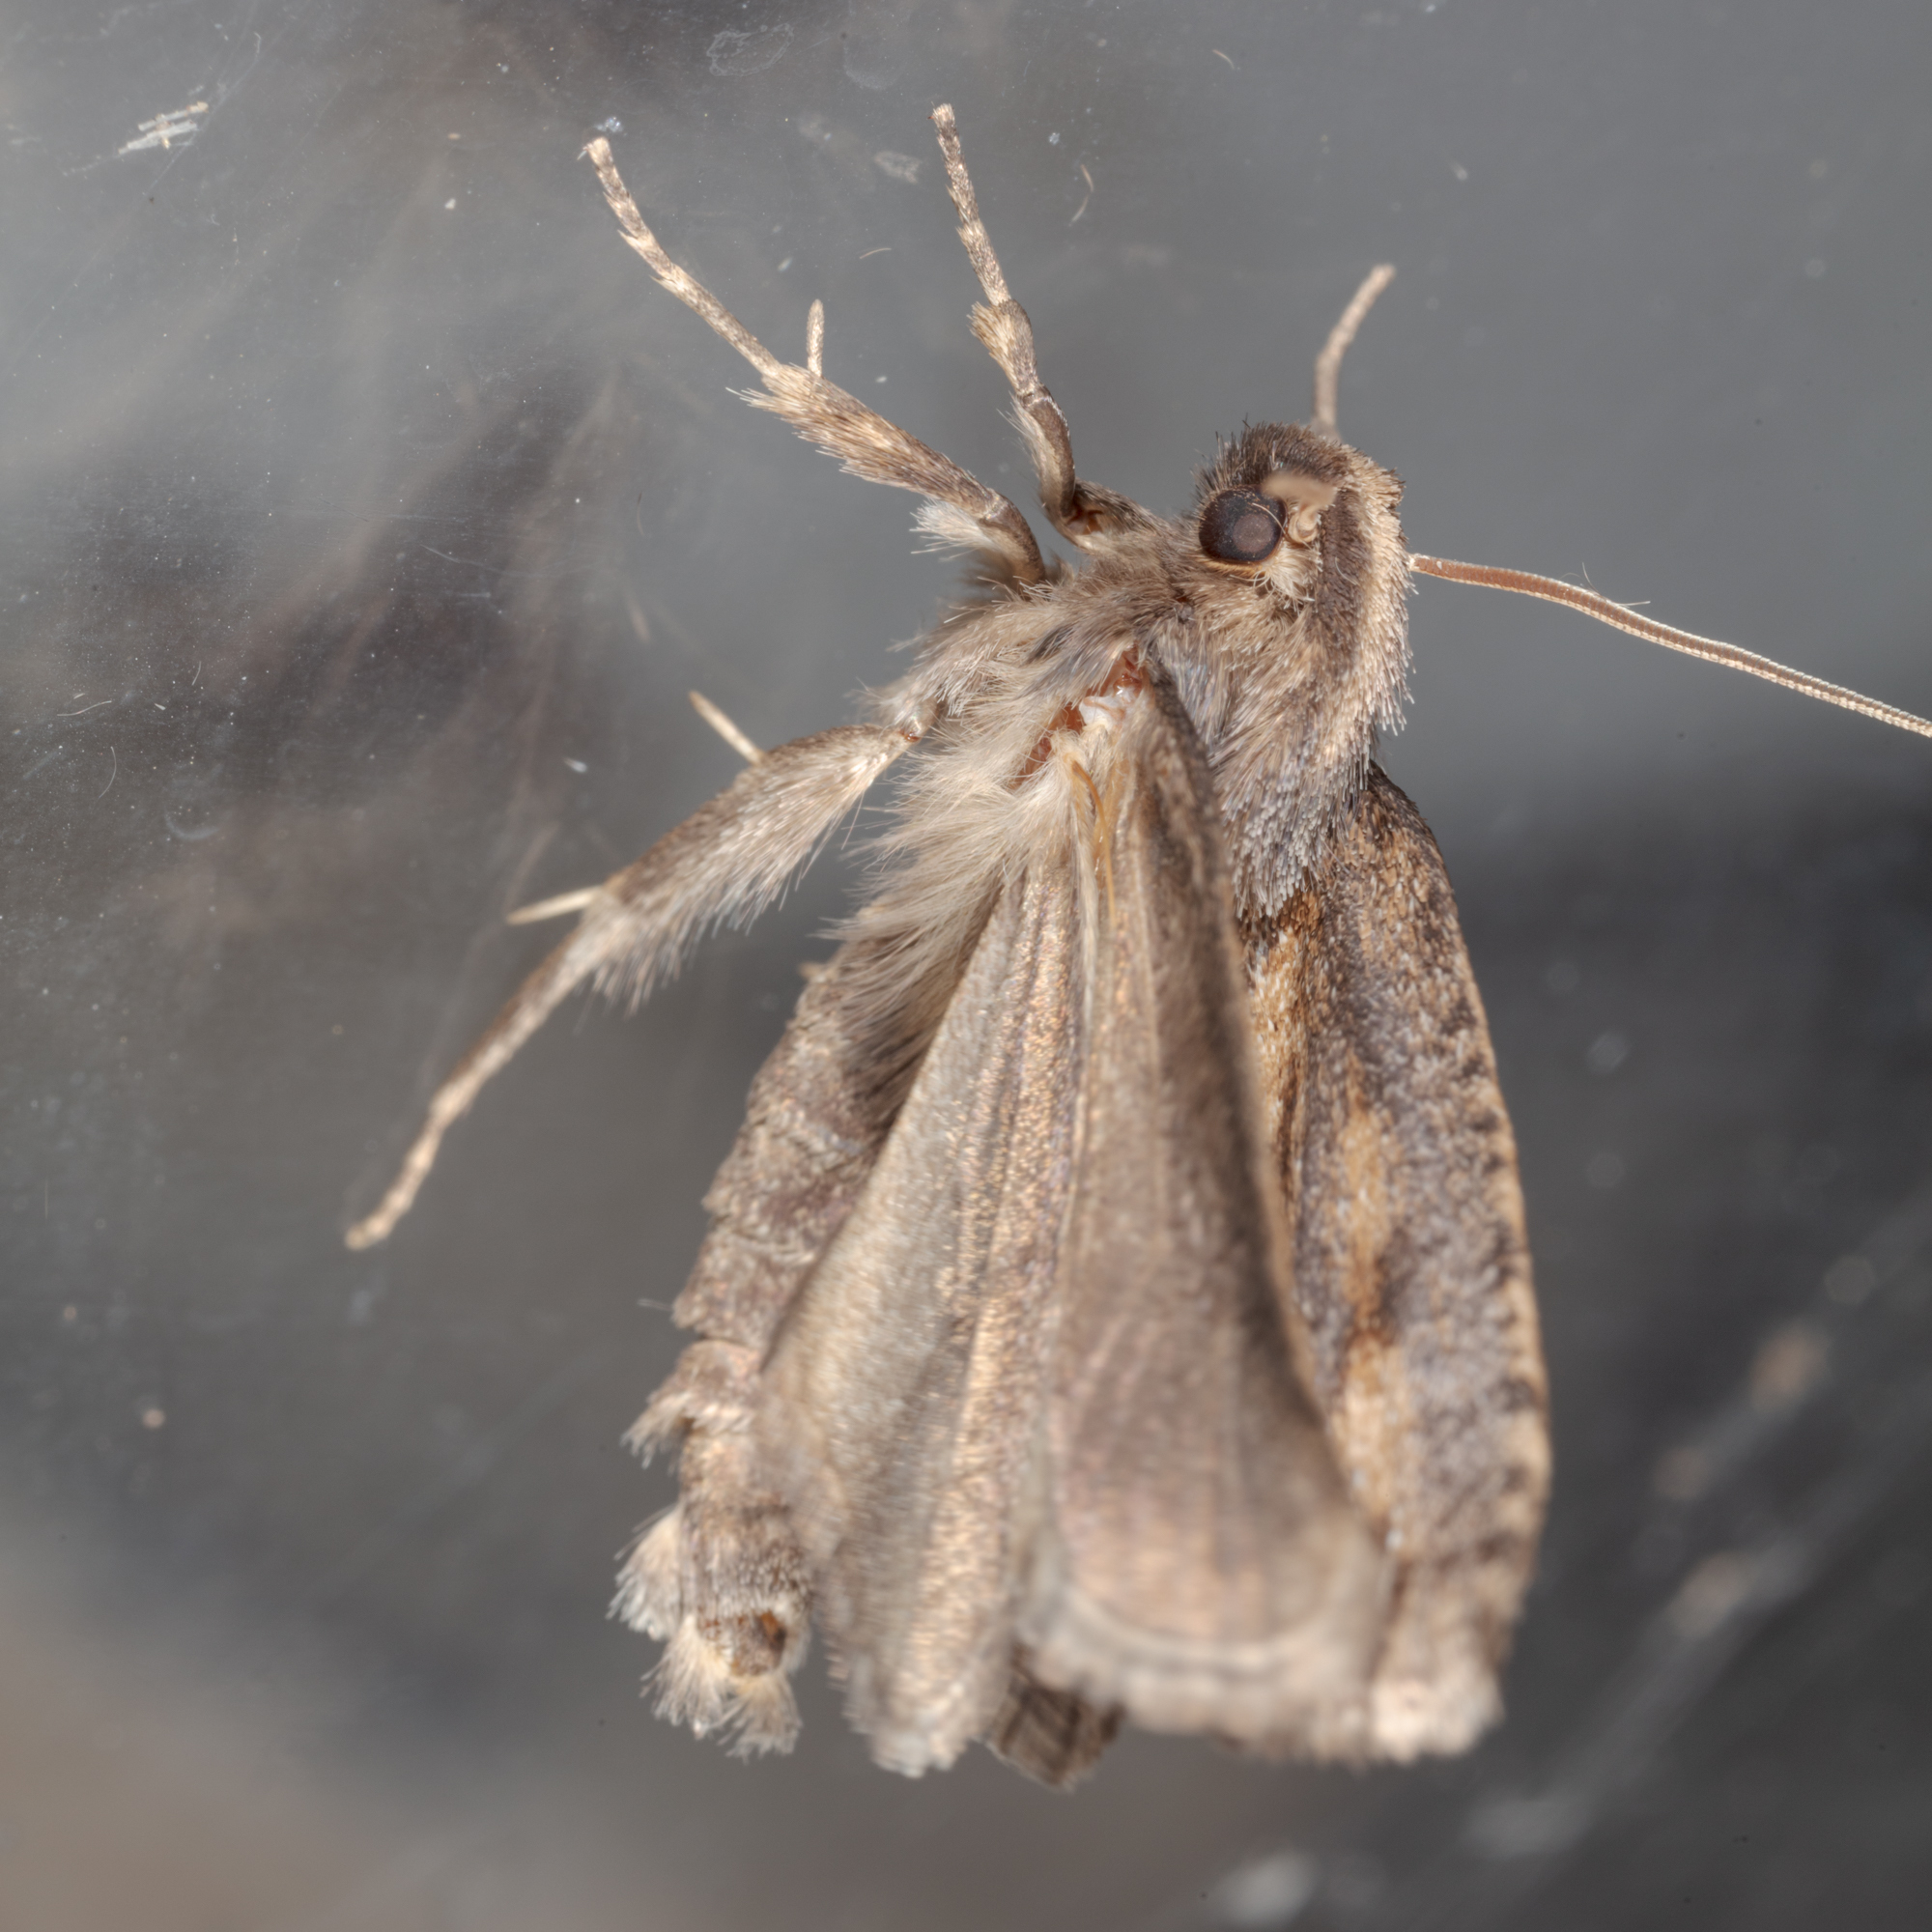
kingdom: Animalia
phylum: Arthropoda
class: Insecta
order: Lepidoptera
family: Tineidae
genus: Acrolophus
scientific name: Acrolophus popeanella
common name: Clemens' grass tubeworm moth
